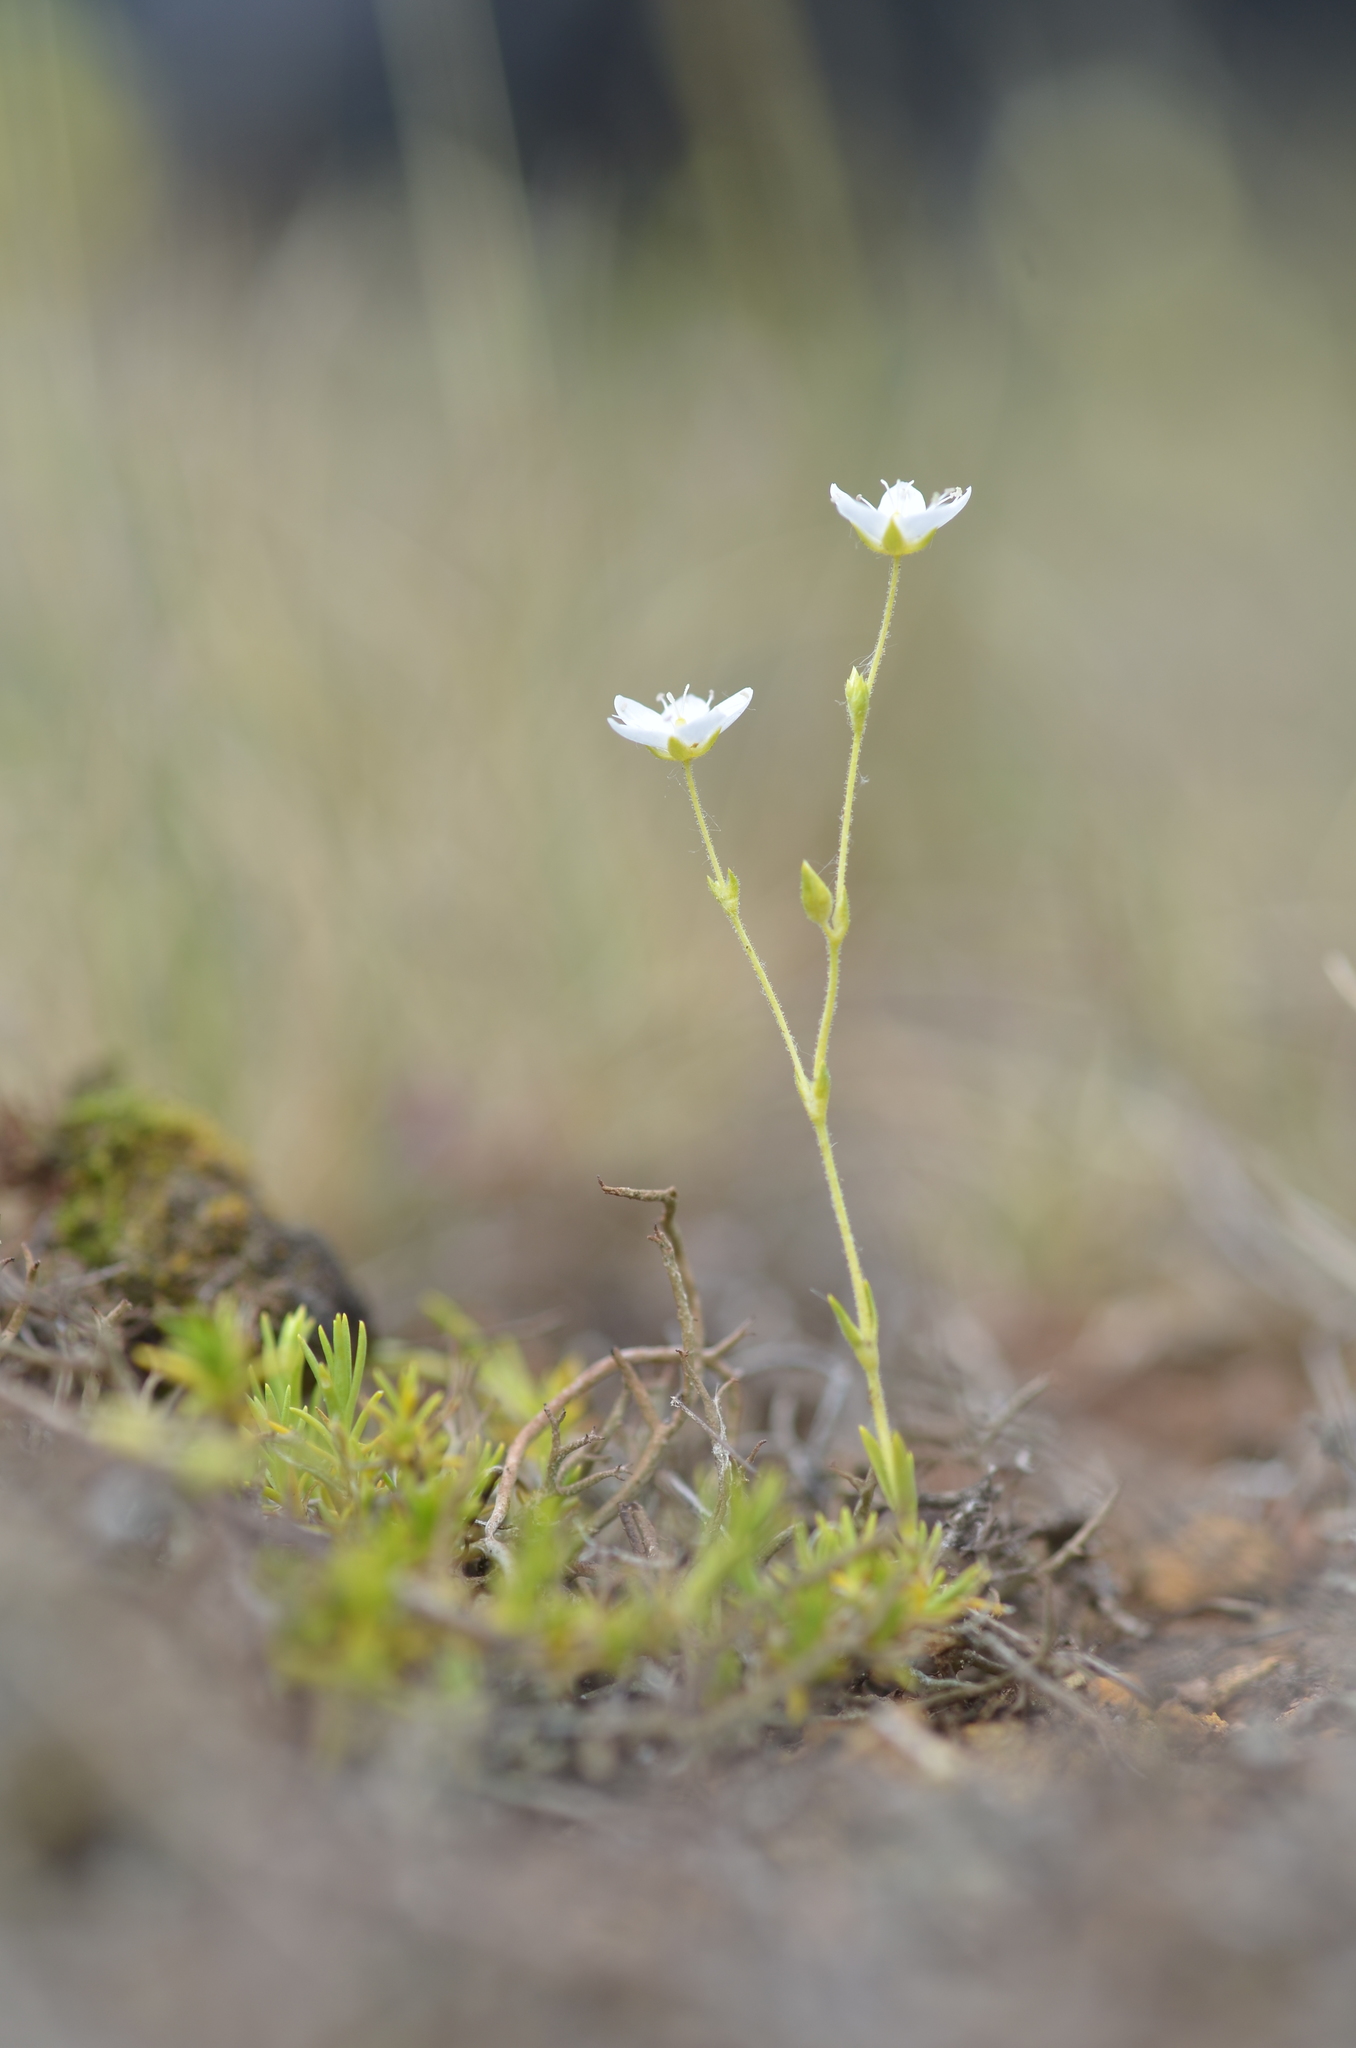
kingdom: Plantae
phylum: Tracheophyta
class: Magnoliopsida
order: Caryophyllales
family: Caryophyllaceae
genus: Sabulina
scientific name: Sabulina caespitosa
